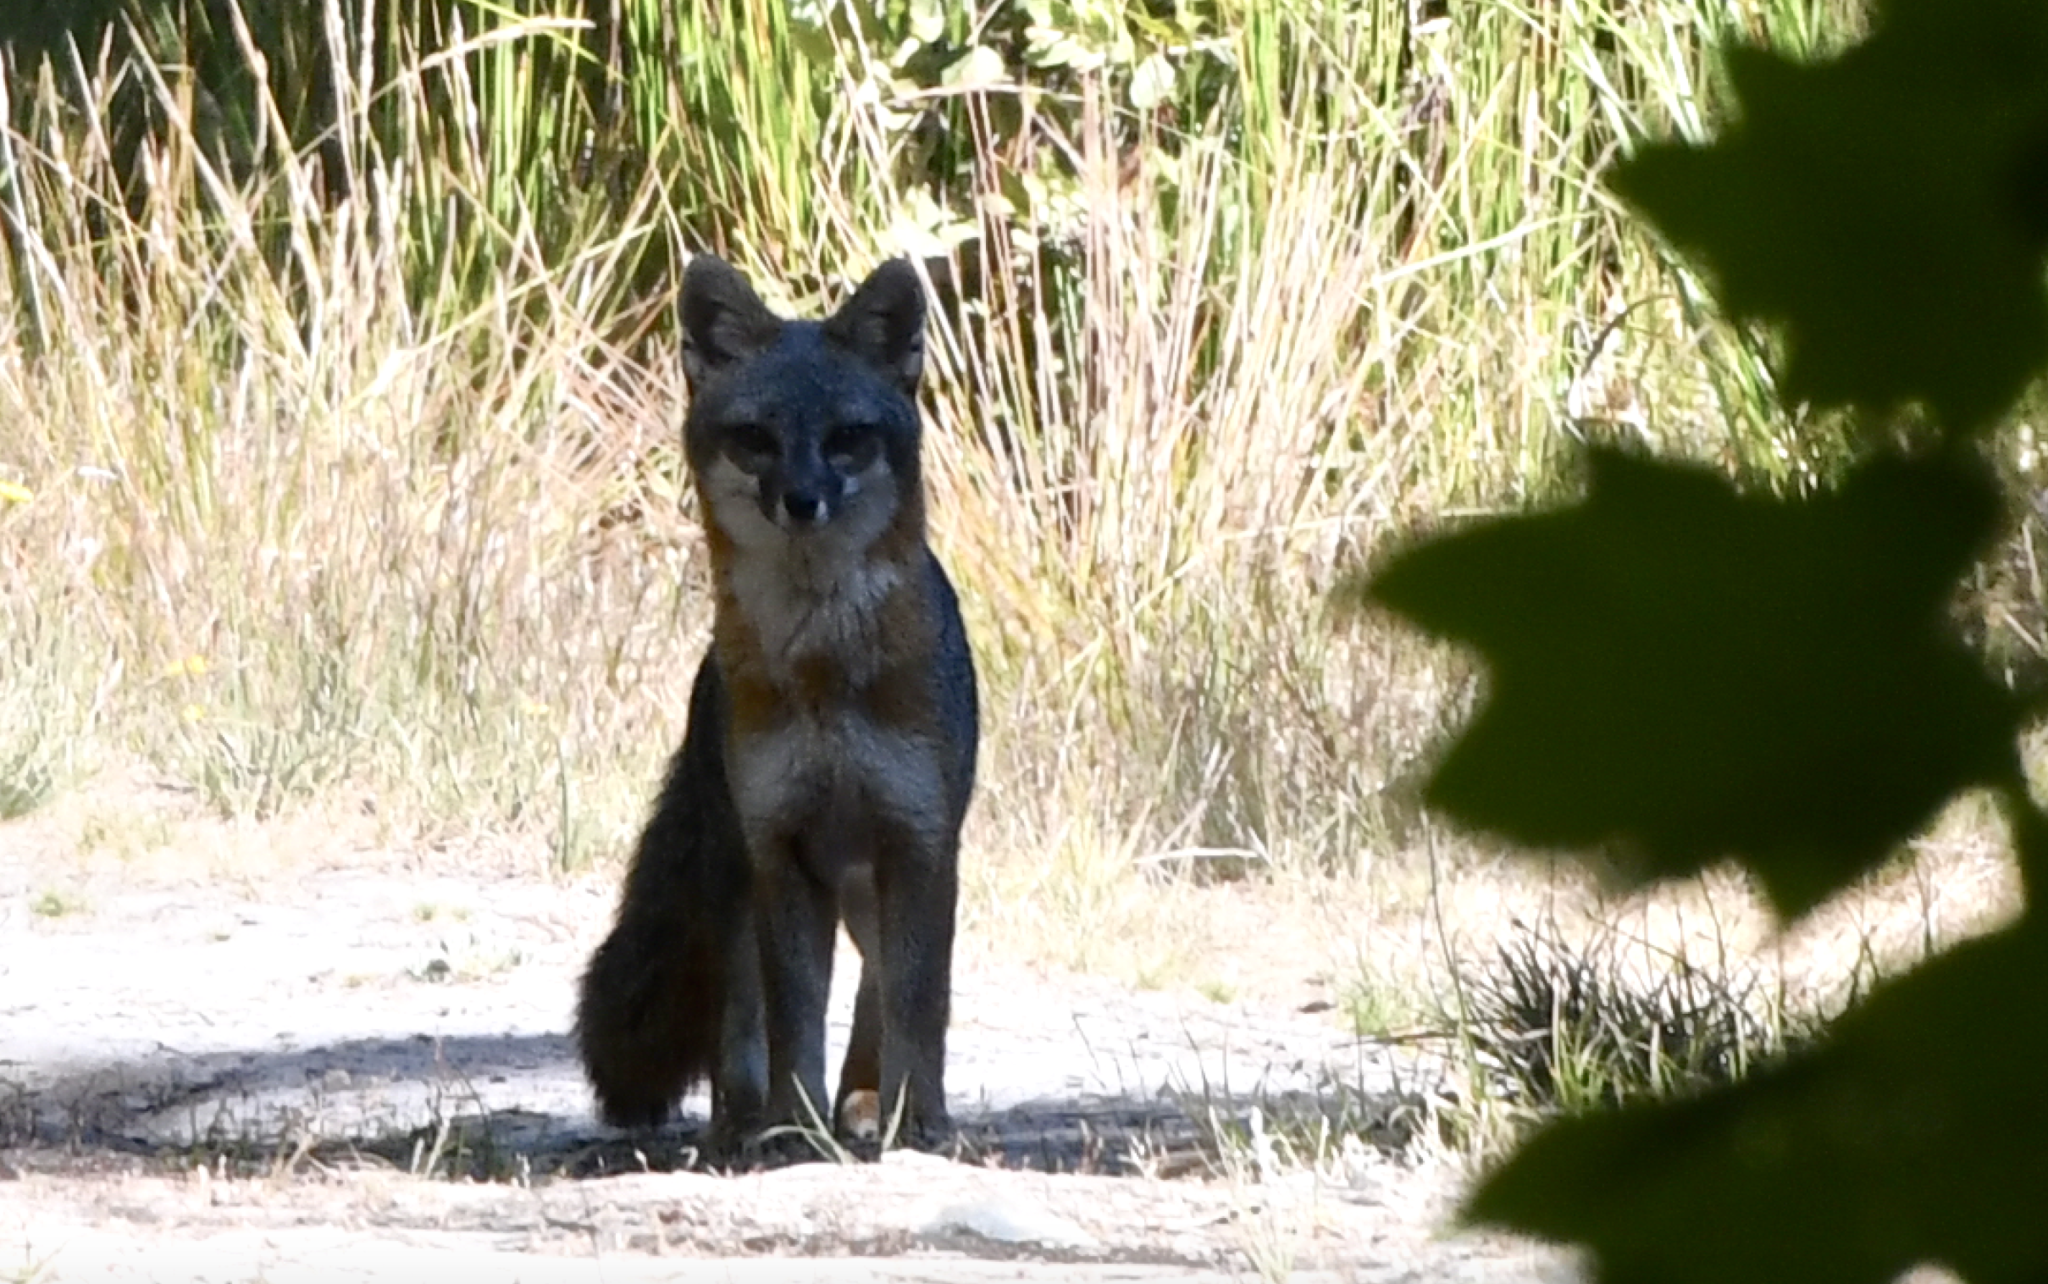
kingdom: Animalia
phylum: Chordata
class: Mammalia
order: Carnivora
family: Canidae
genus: Urocyon
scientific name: Urocyon cinereoargenteus
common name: Gray fox
